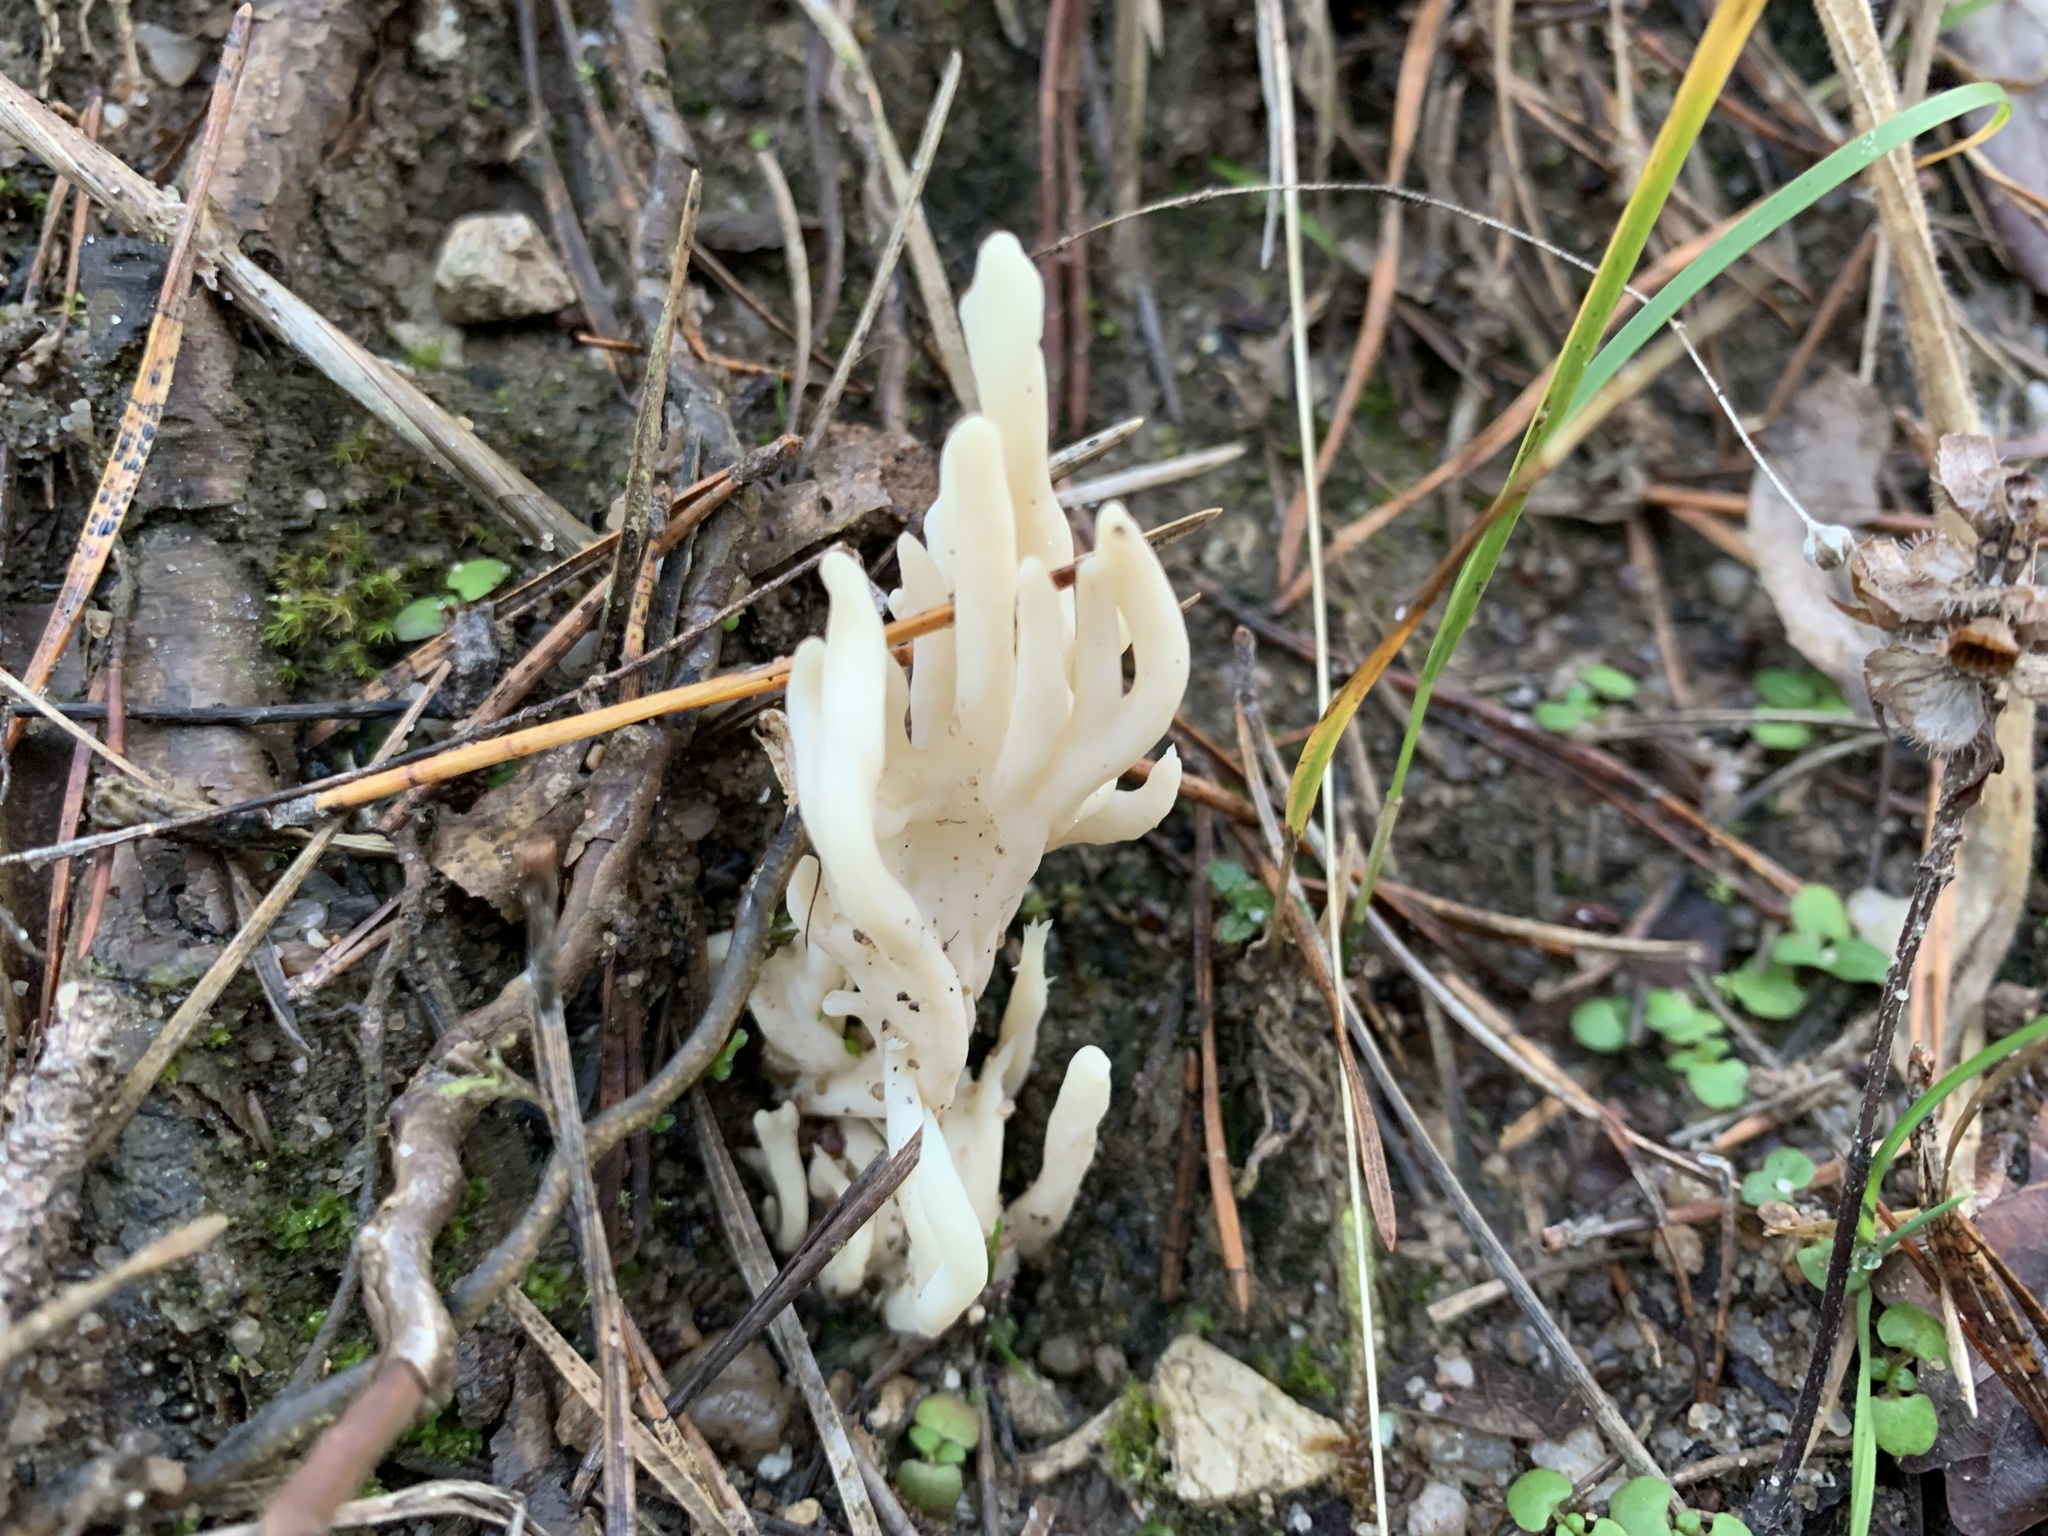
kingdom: Fungi
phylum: Basidiomycota
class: Agaricomycetes
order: Cantharellales
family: Hydnaceae
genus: Clavulina
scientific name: Clavulina rugosa
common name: Wrinkled club
